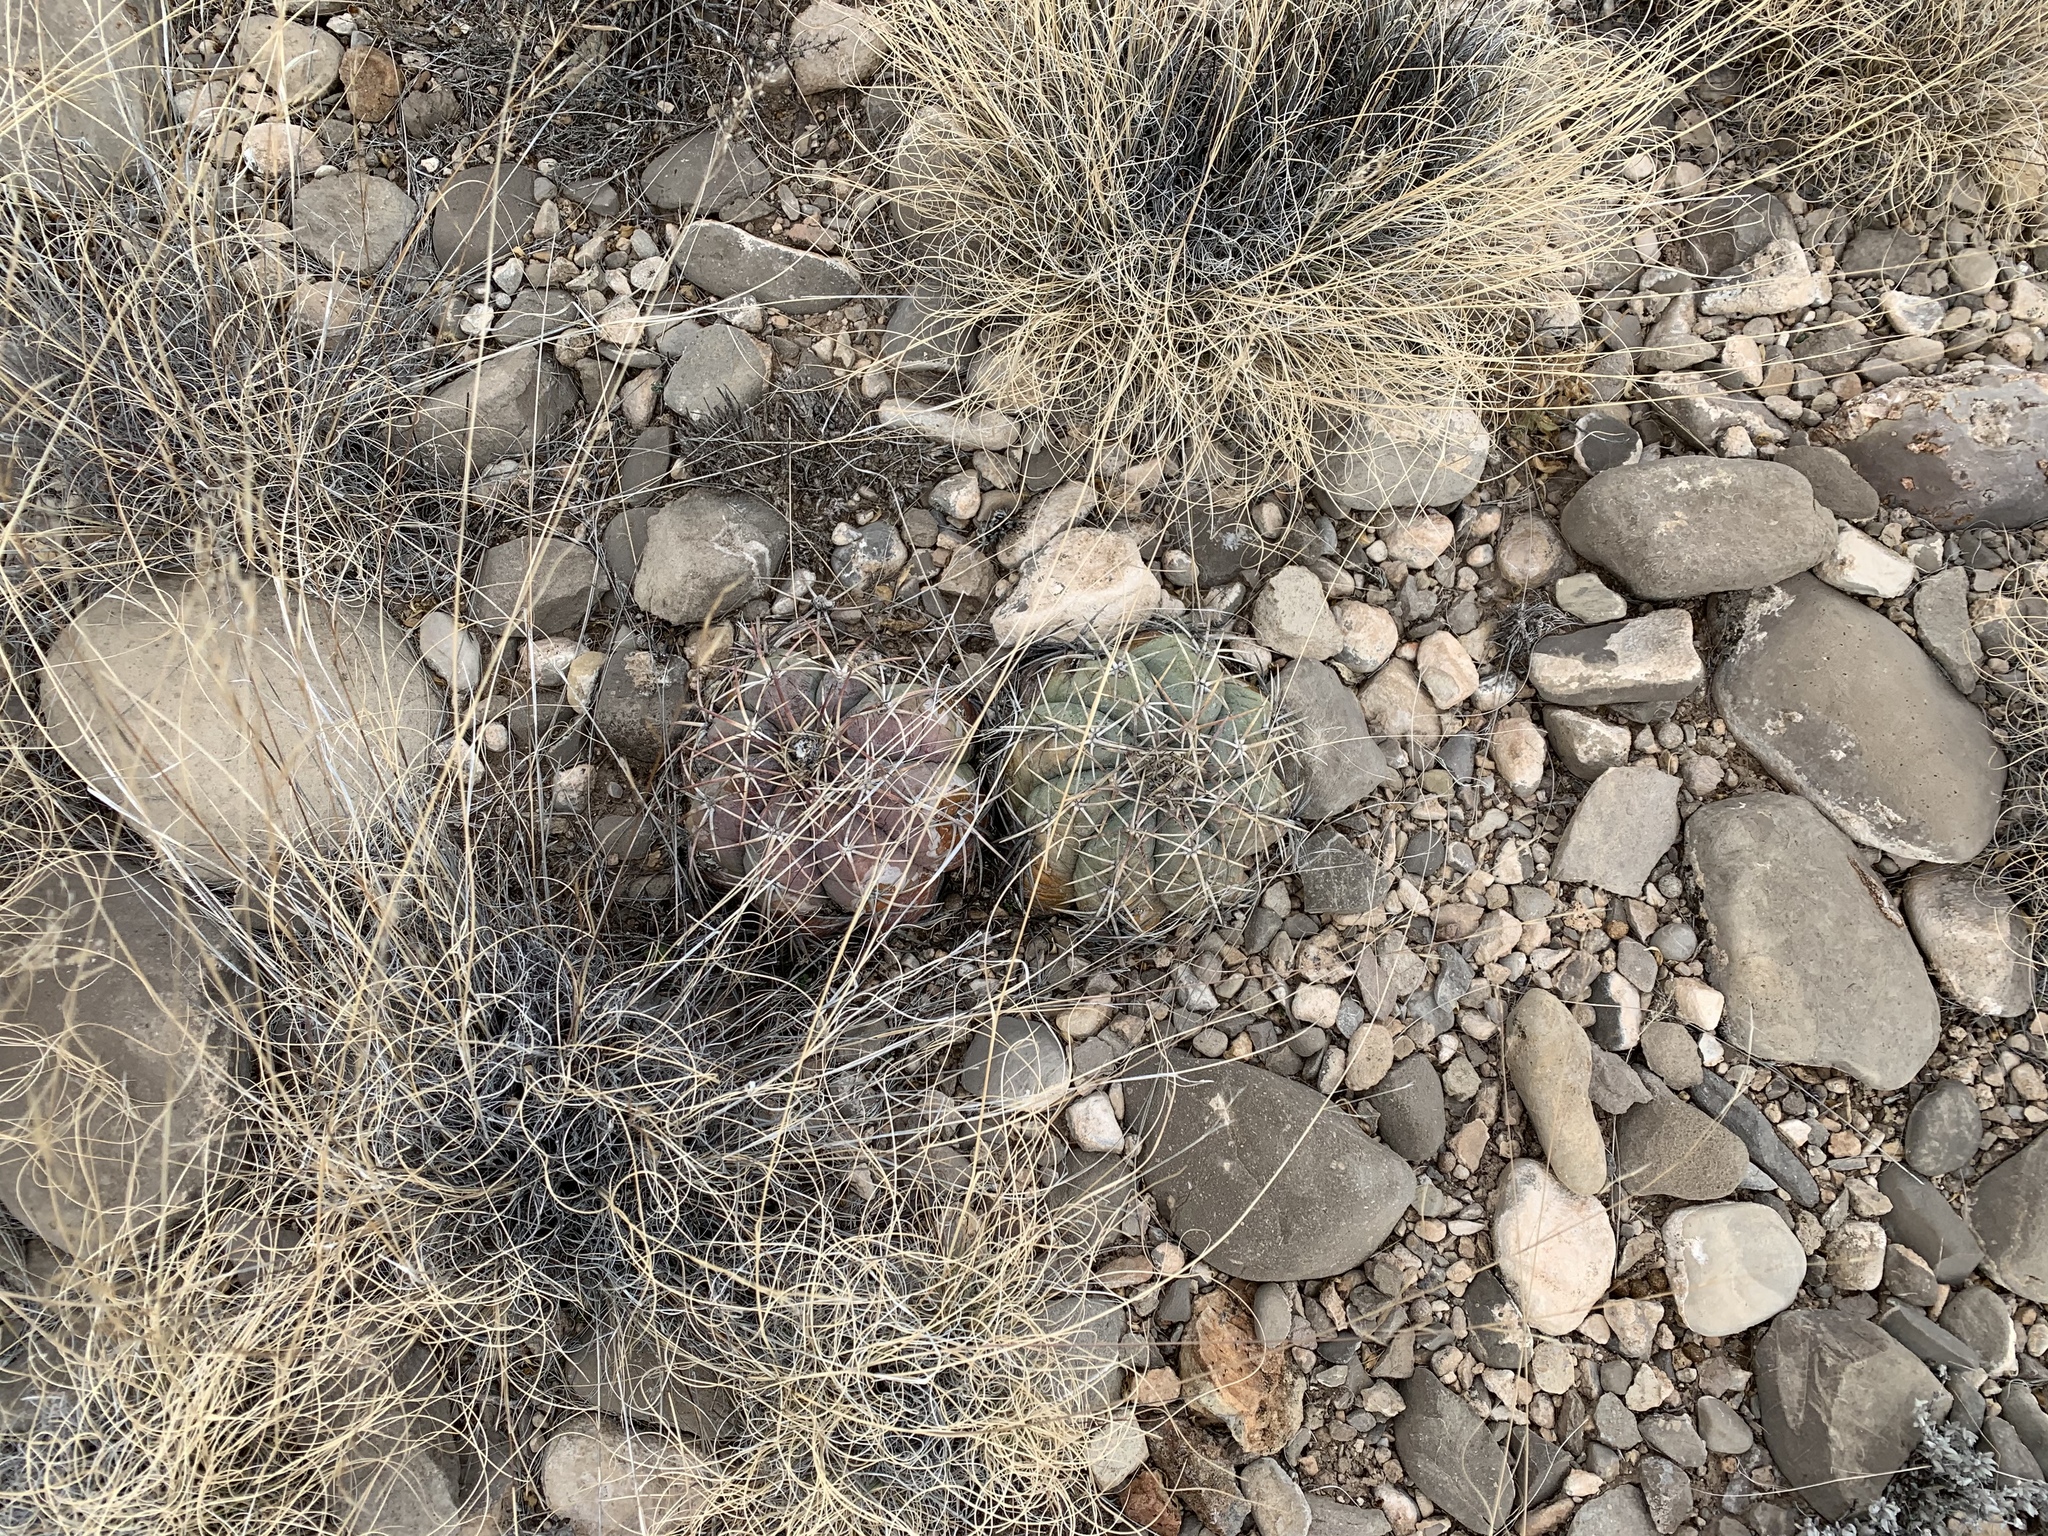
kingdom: Plantae
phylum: Tracheophyta
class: Magnoliopsida
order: Caryophyllales
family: Cactaceae
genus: Echinocactus
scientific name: Echinocactus horizonthalonius
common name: Devilshead
